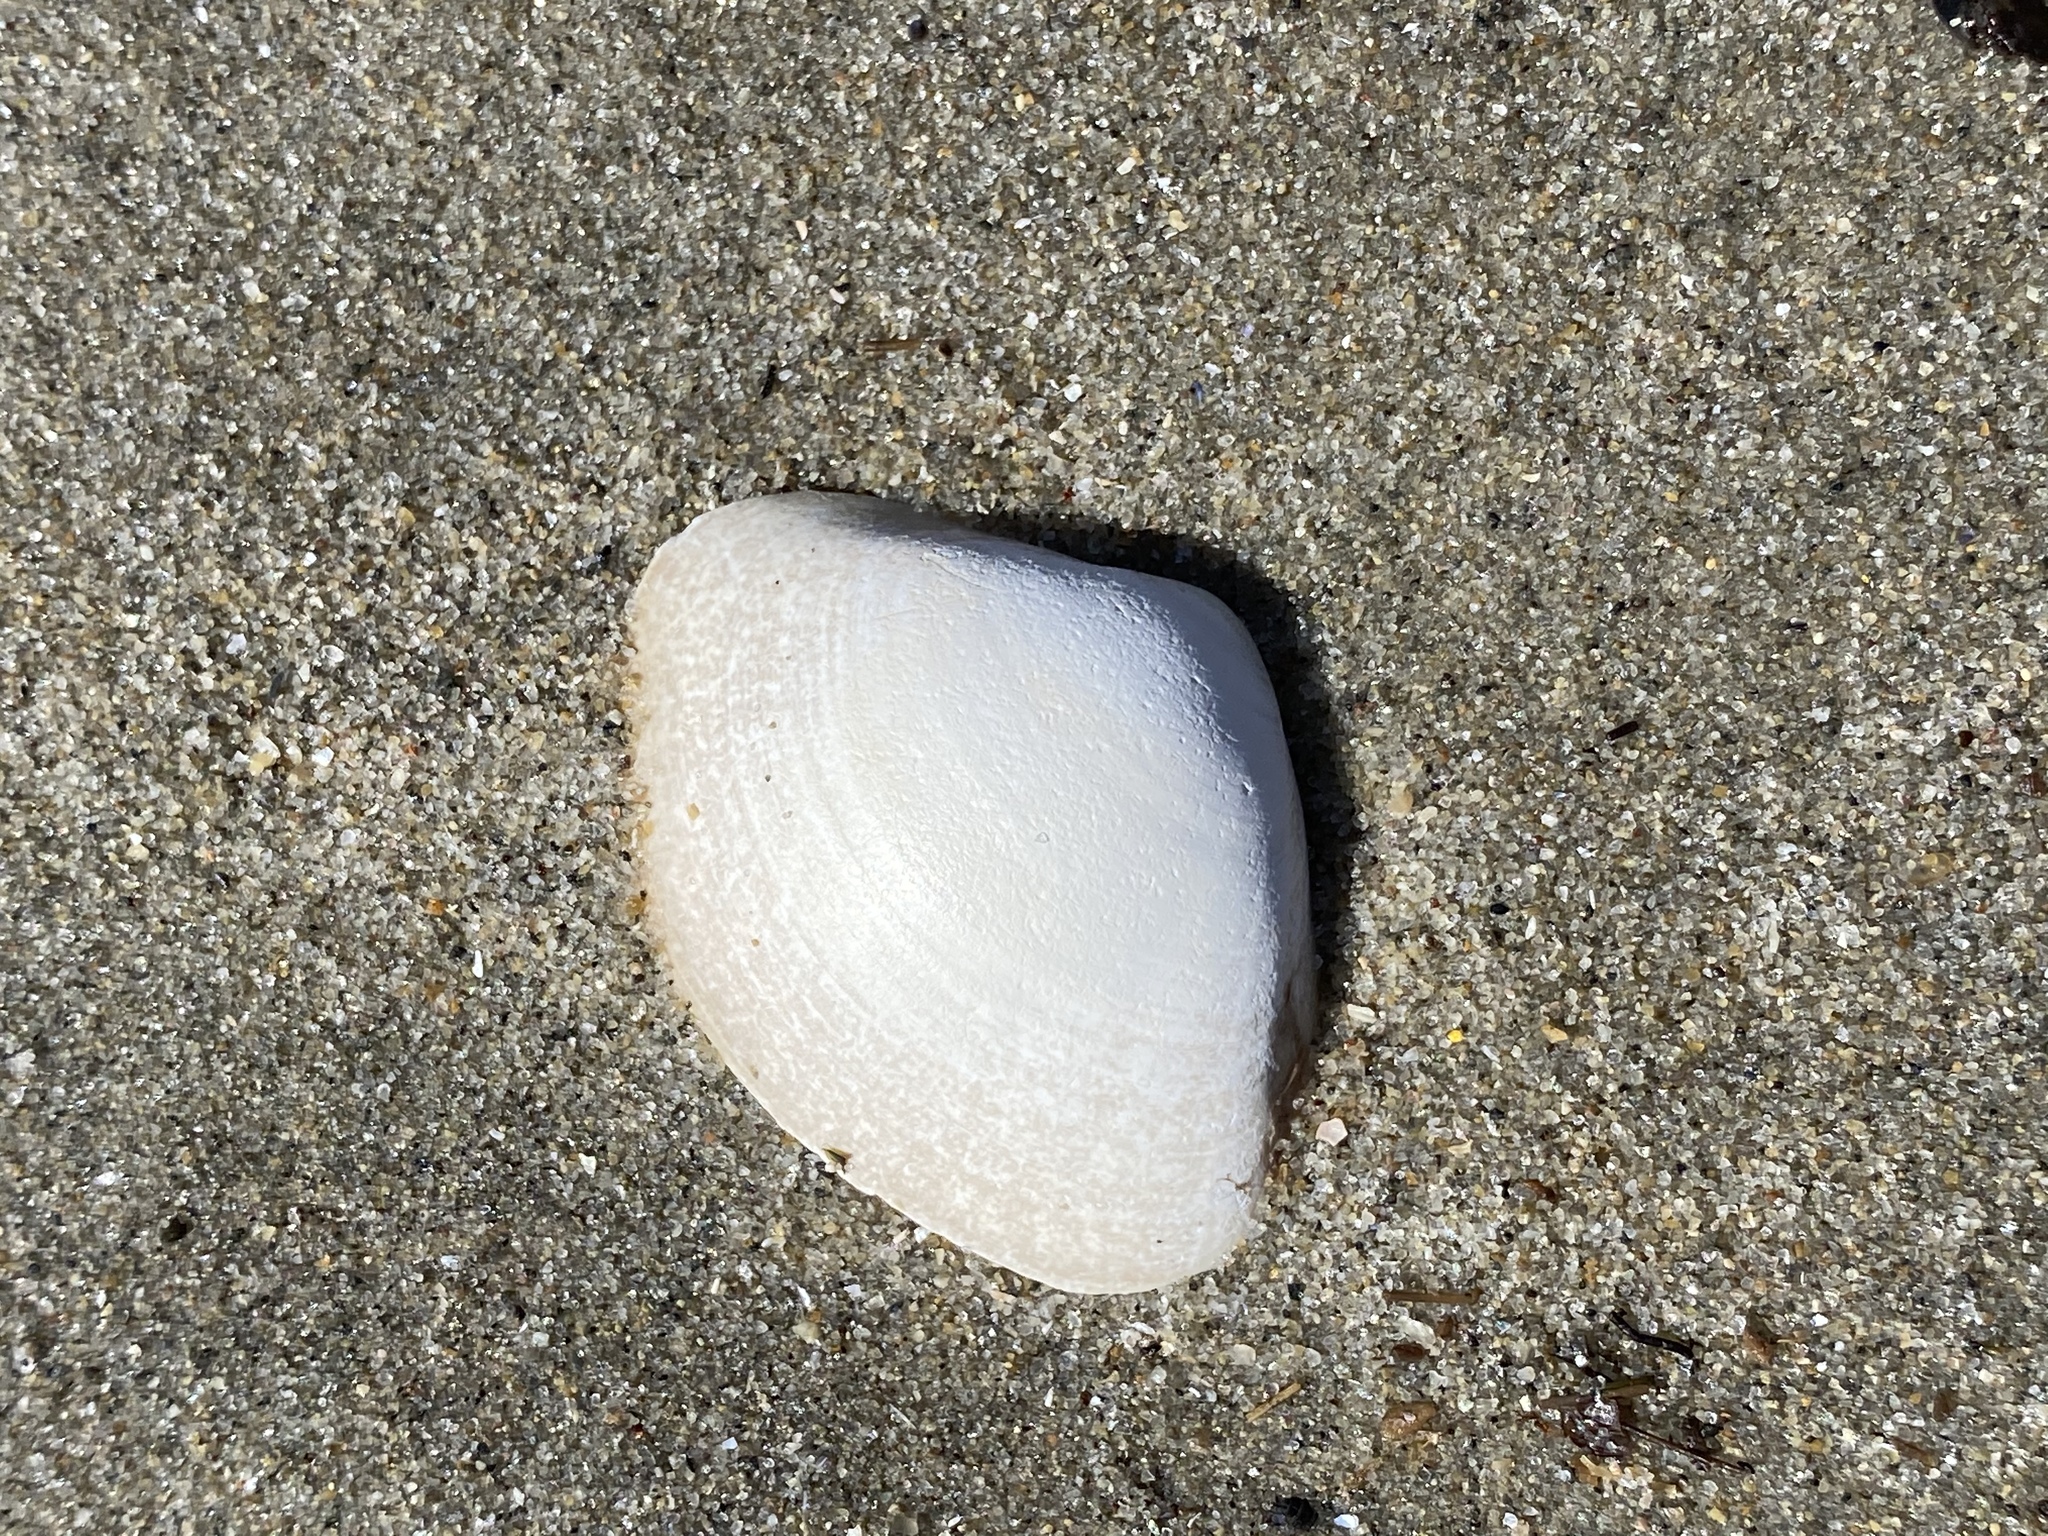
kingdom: Animalia
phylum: Mollusca
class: Bivalvia
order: Venerida
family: Mactridae
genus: Spisula
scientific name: Spisula solidissima
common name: Atlantic surf clam
